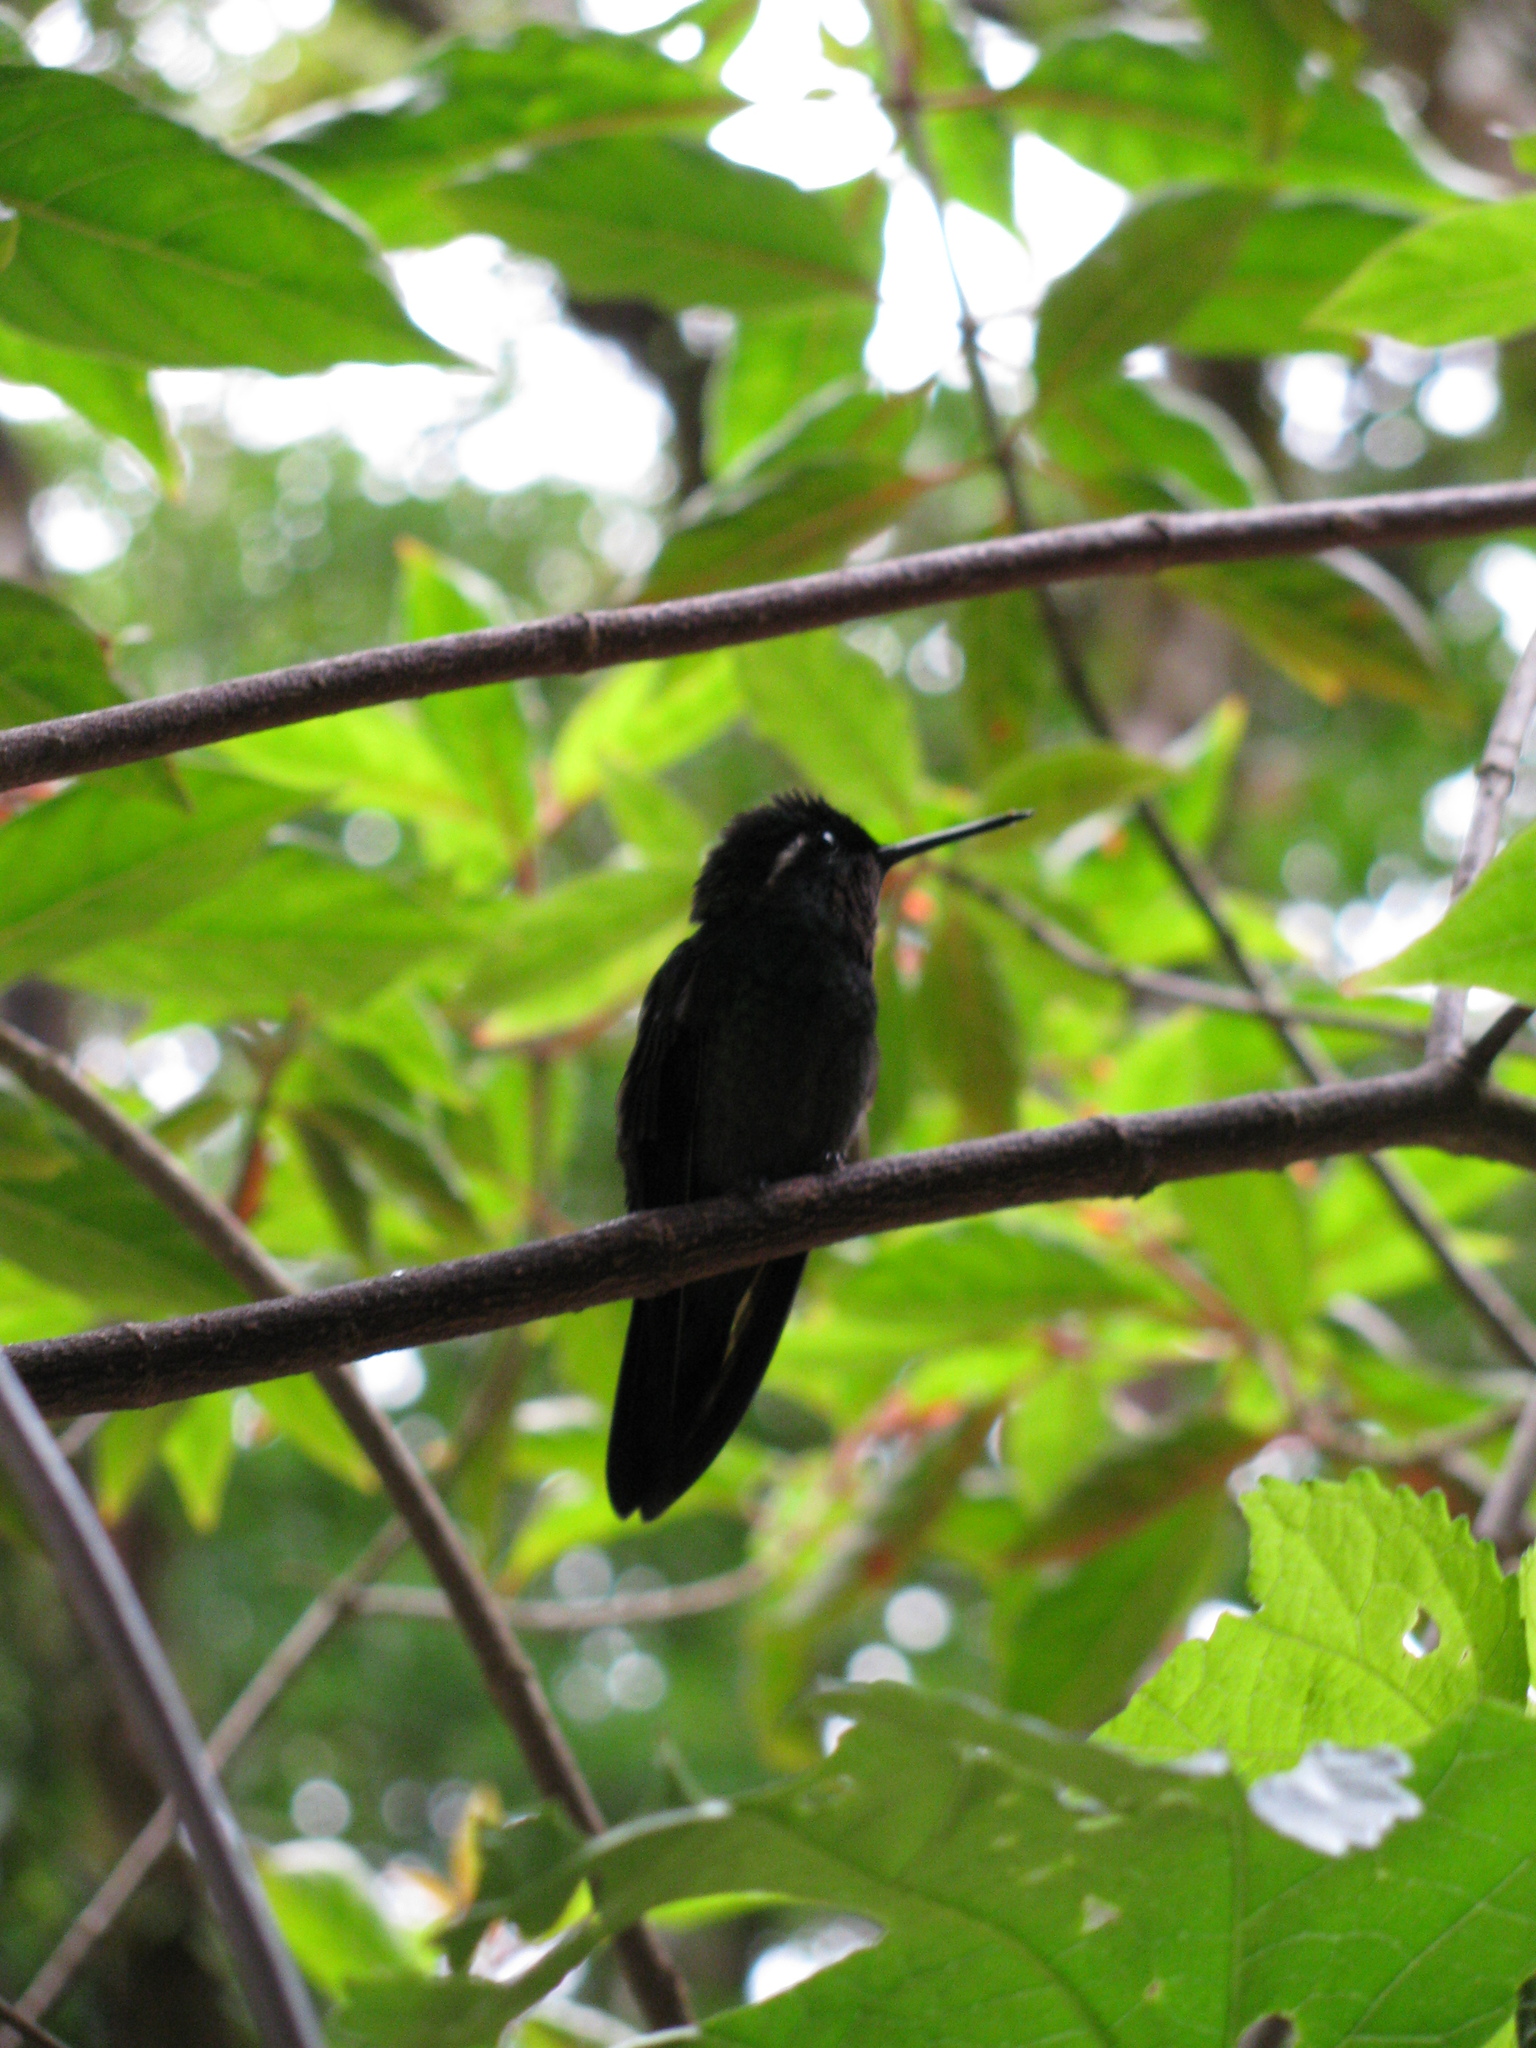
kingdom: Animalia
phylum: Chordata
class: Aves
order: Apodiformes
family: Trochilidae
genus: Lampornis
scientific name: Lampornis calolaemus
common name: Purple-throated mountain-gem
